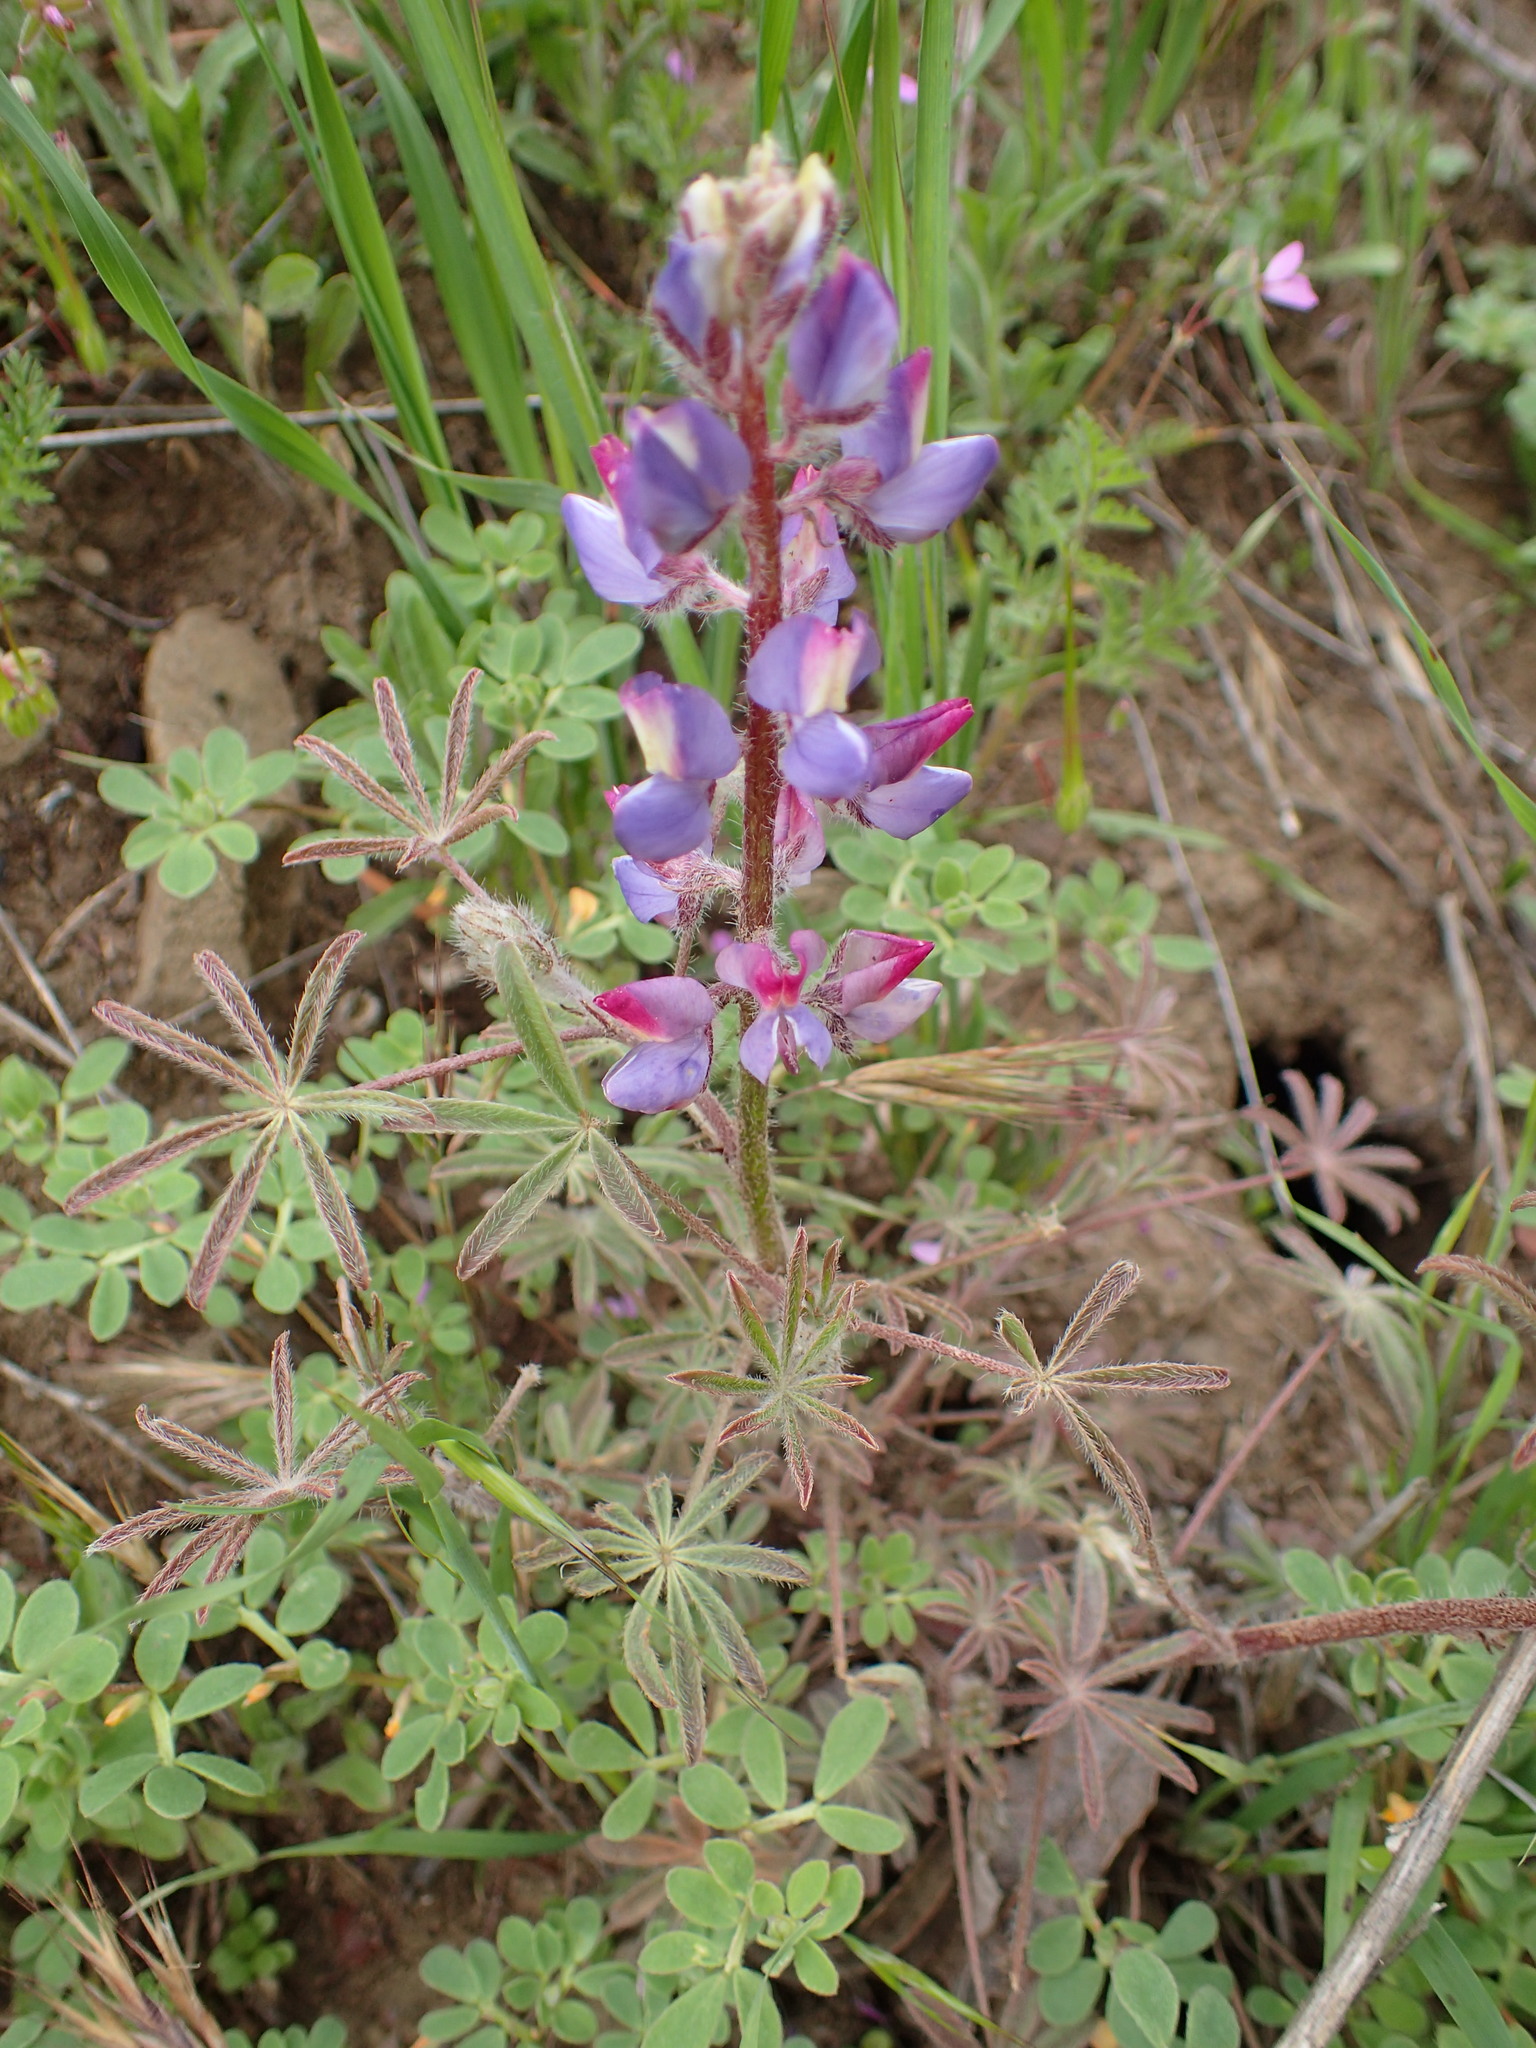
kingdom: Plantae
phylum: Tracheophyta
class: Magnoliopsida
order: Fabales
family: Fabaceae
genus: Lupinus
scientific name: Lupinus sparsiflorus
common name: Coulter's lupine
